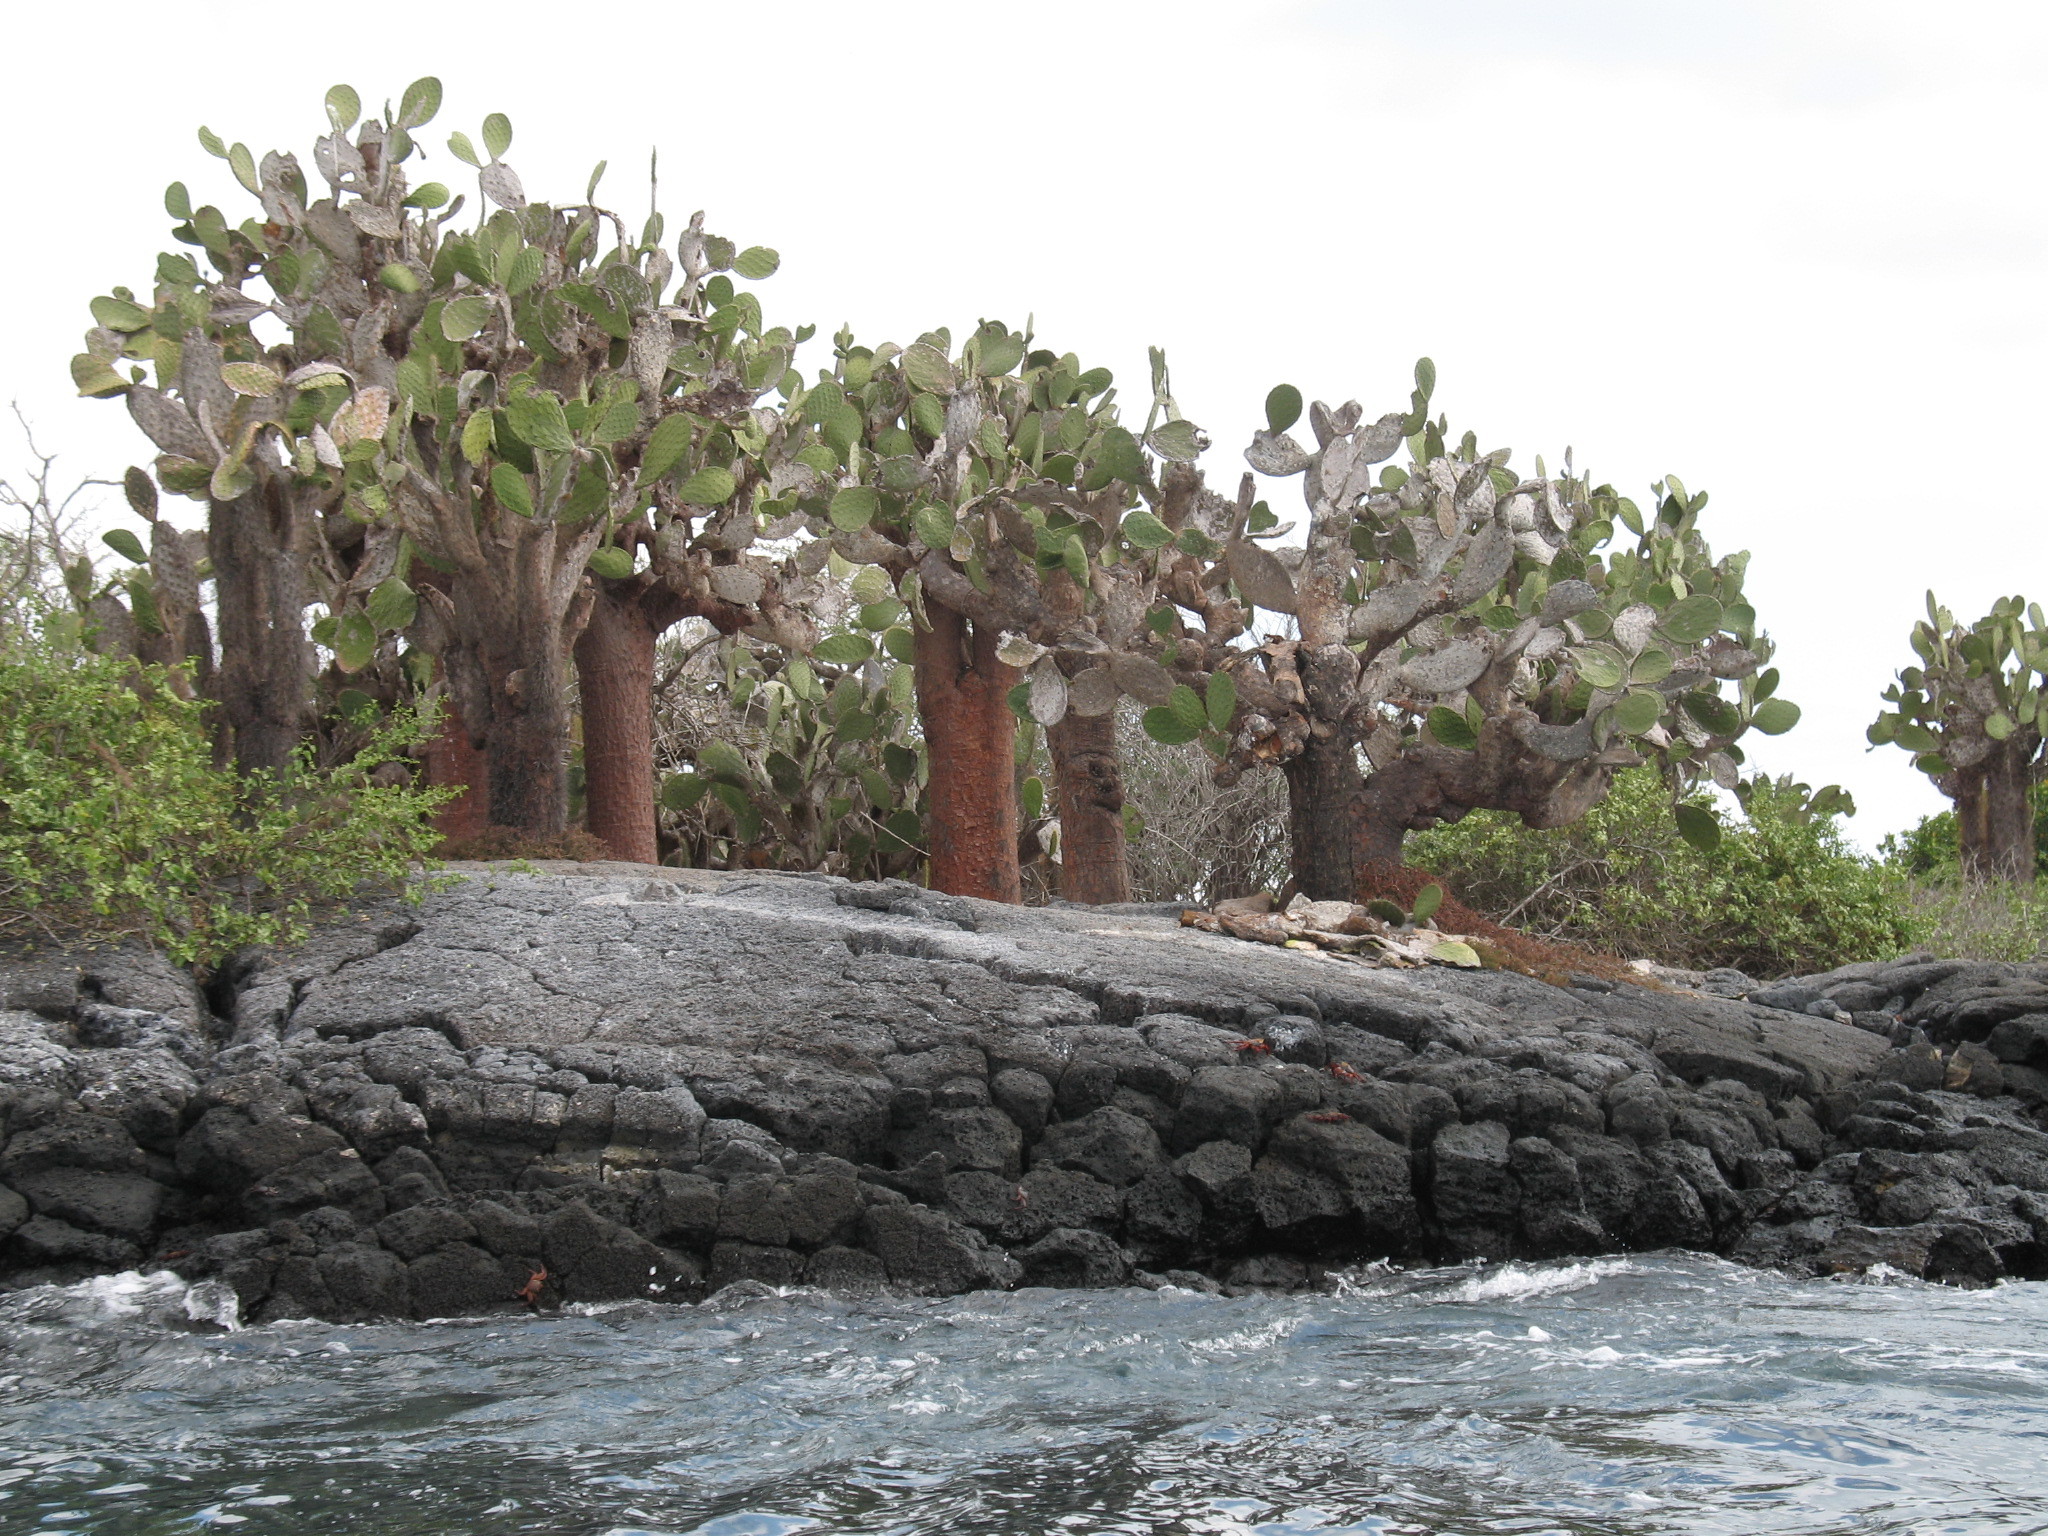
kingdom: Plantae
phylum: Tracheophyta
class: Magnoliopsida
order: Caryophyllales
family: Cactaceae
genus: Opuntia
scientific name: Opuntia galapageia
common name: Galápagos prickly pear
